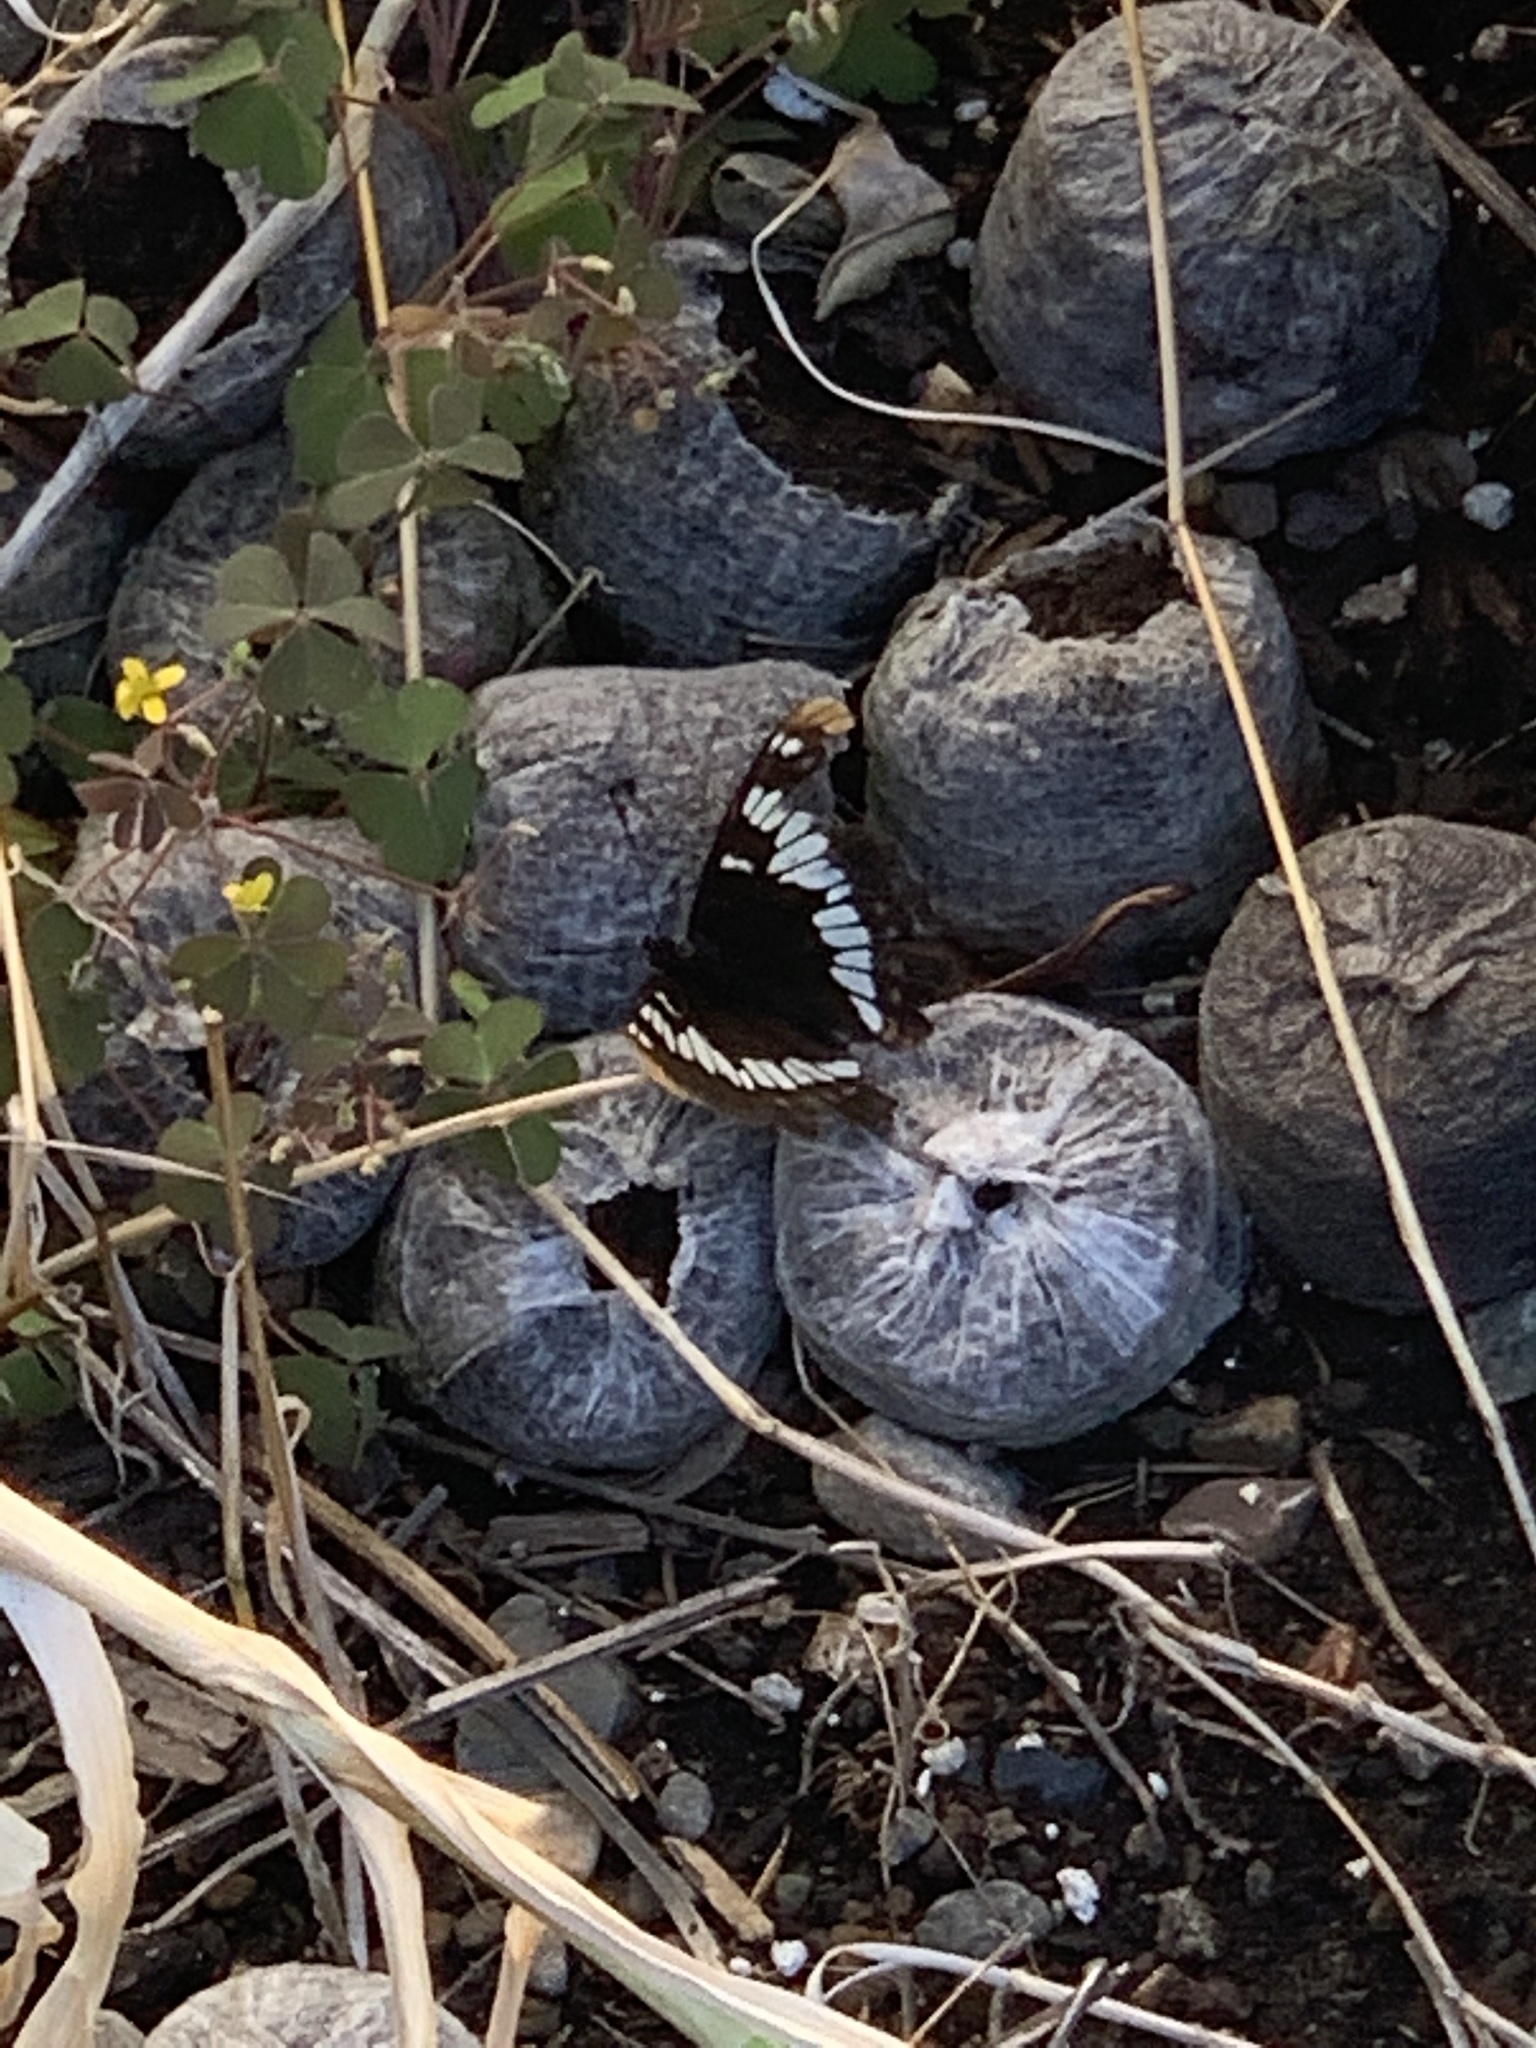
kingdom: Animalia
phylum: Arthropoda
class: Insecta
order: Lepidoptera
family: Nymphalidae
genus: Limenitis
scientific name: Limenitis lorquini
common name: Lorquin's admiral
